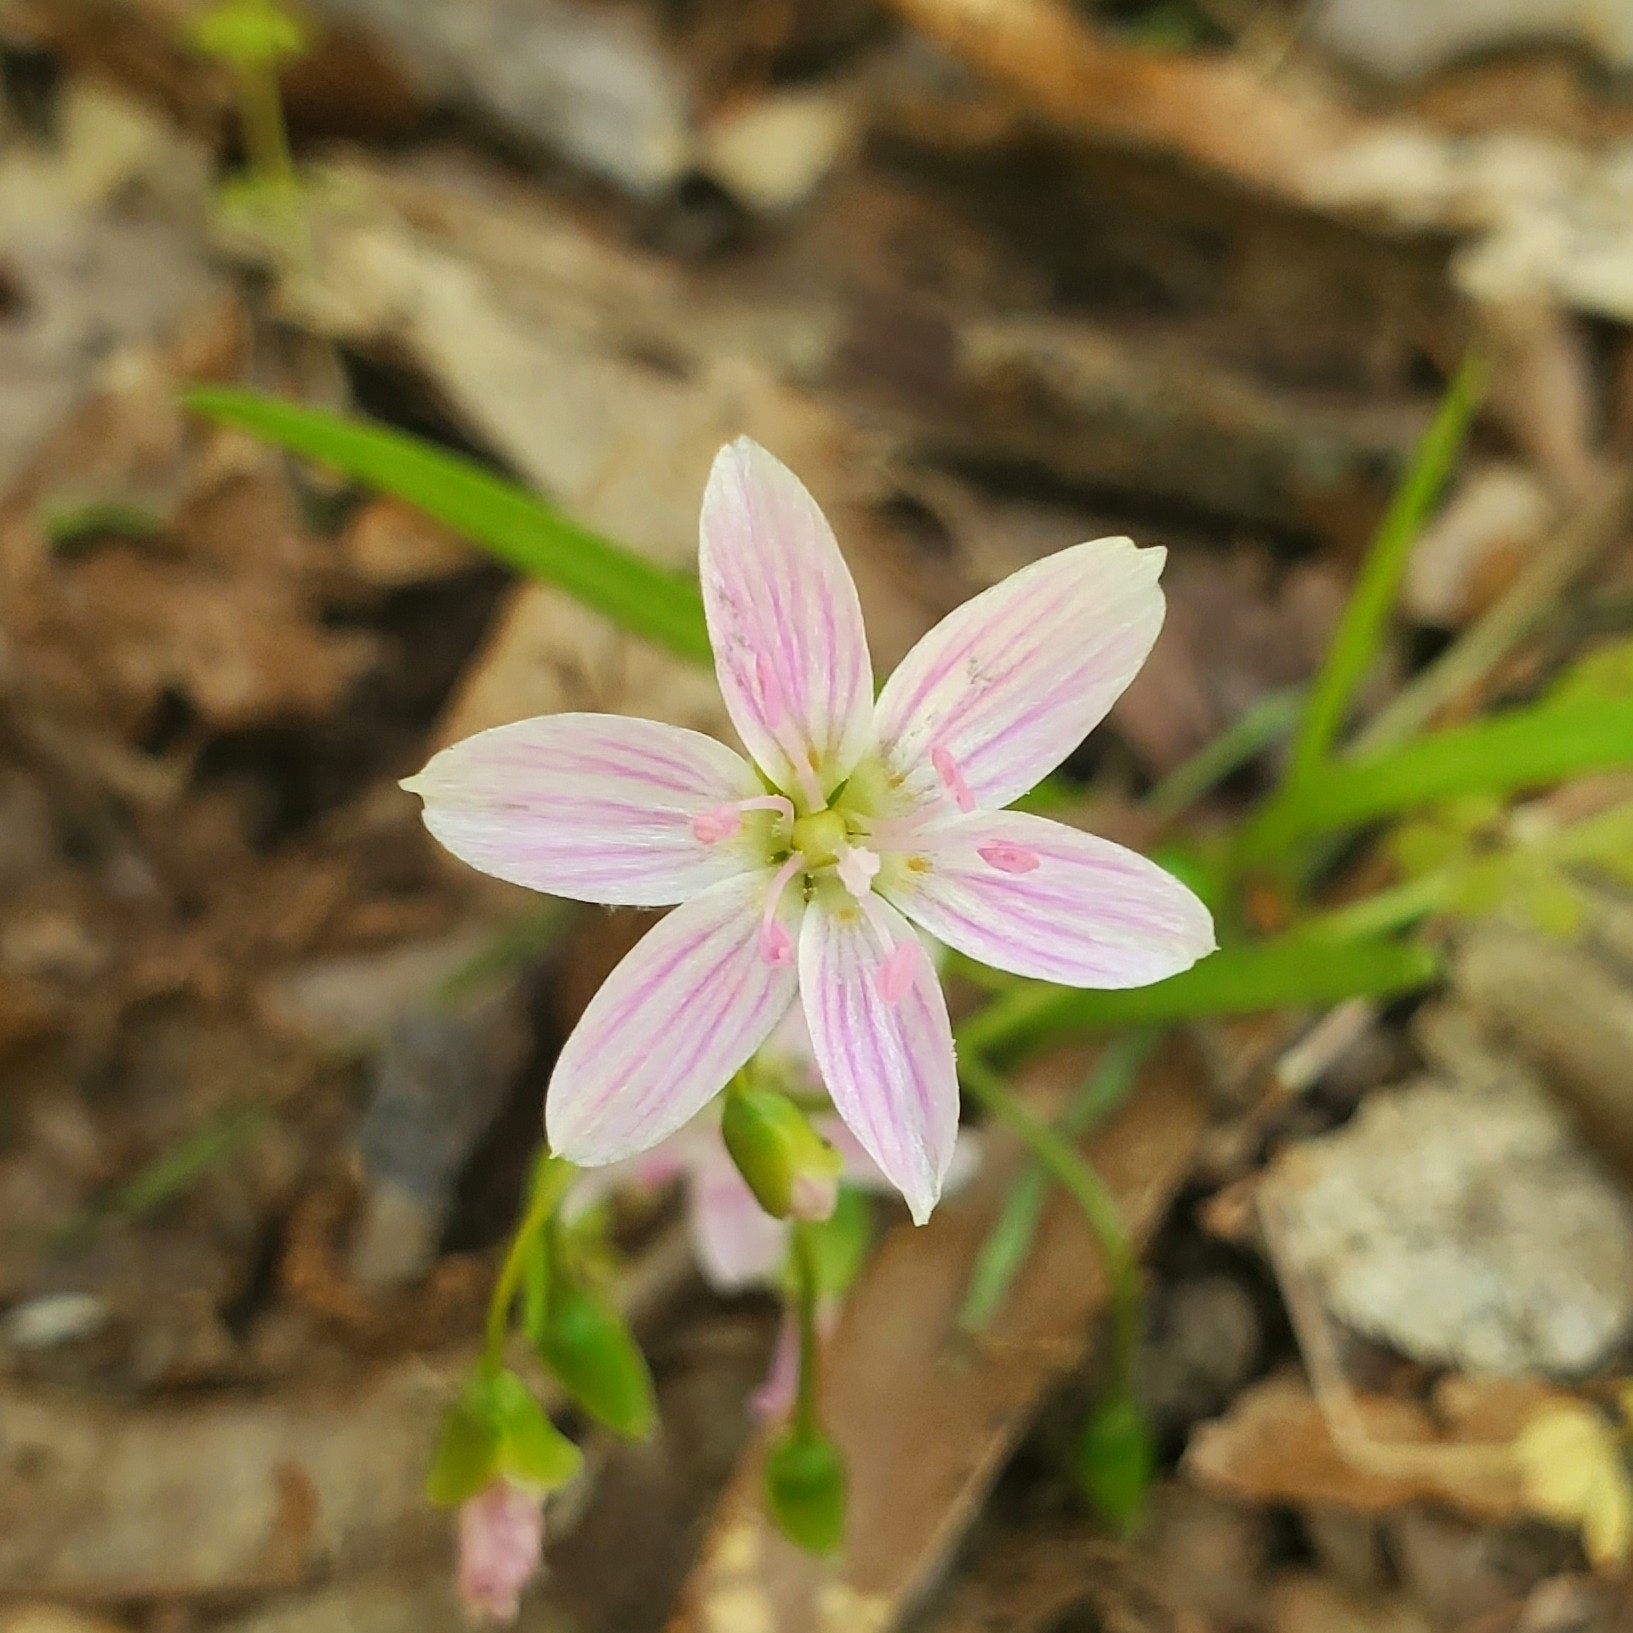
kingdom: Plantae
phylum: Tracheophyta
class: Magnoliopsida
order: Caryophyllales
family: Montiaceae
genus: Claytonia
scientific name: Claytonia virginica
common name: Virginia springbeauty
